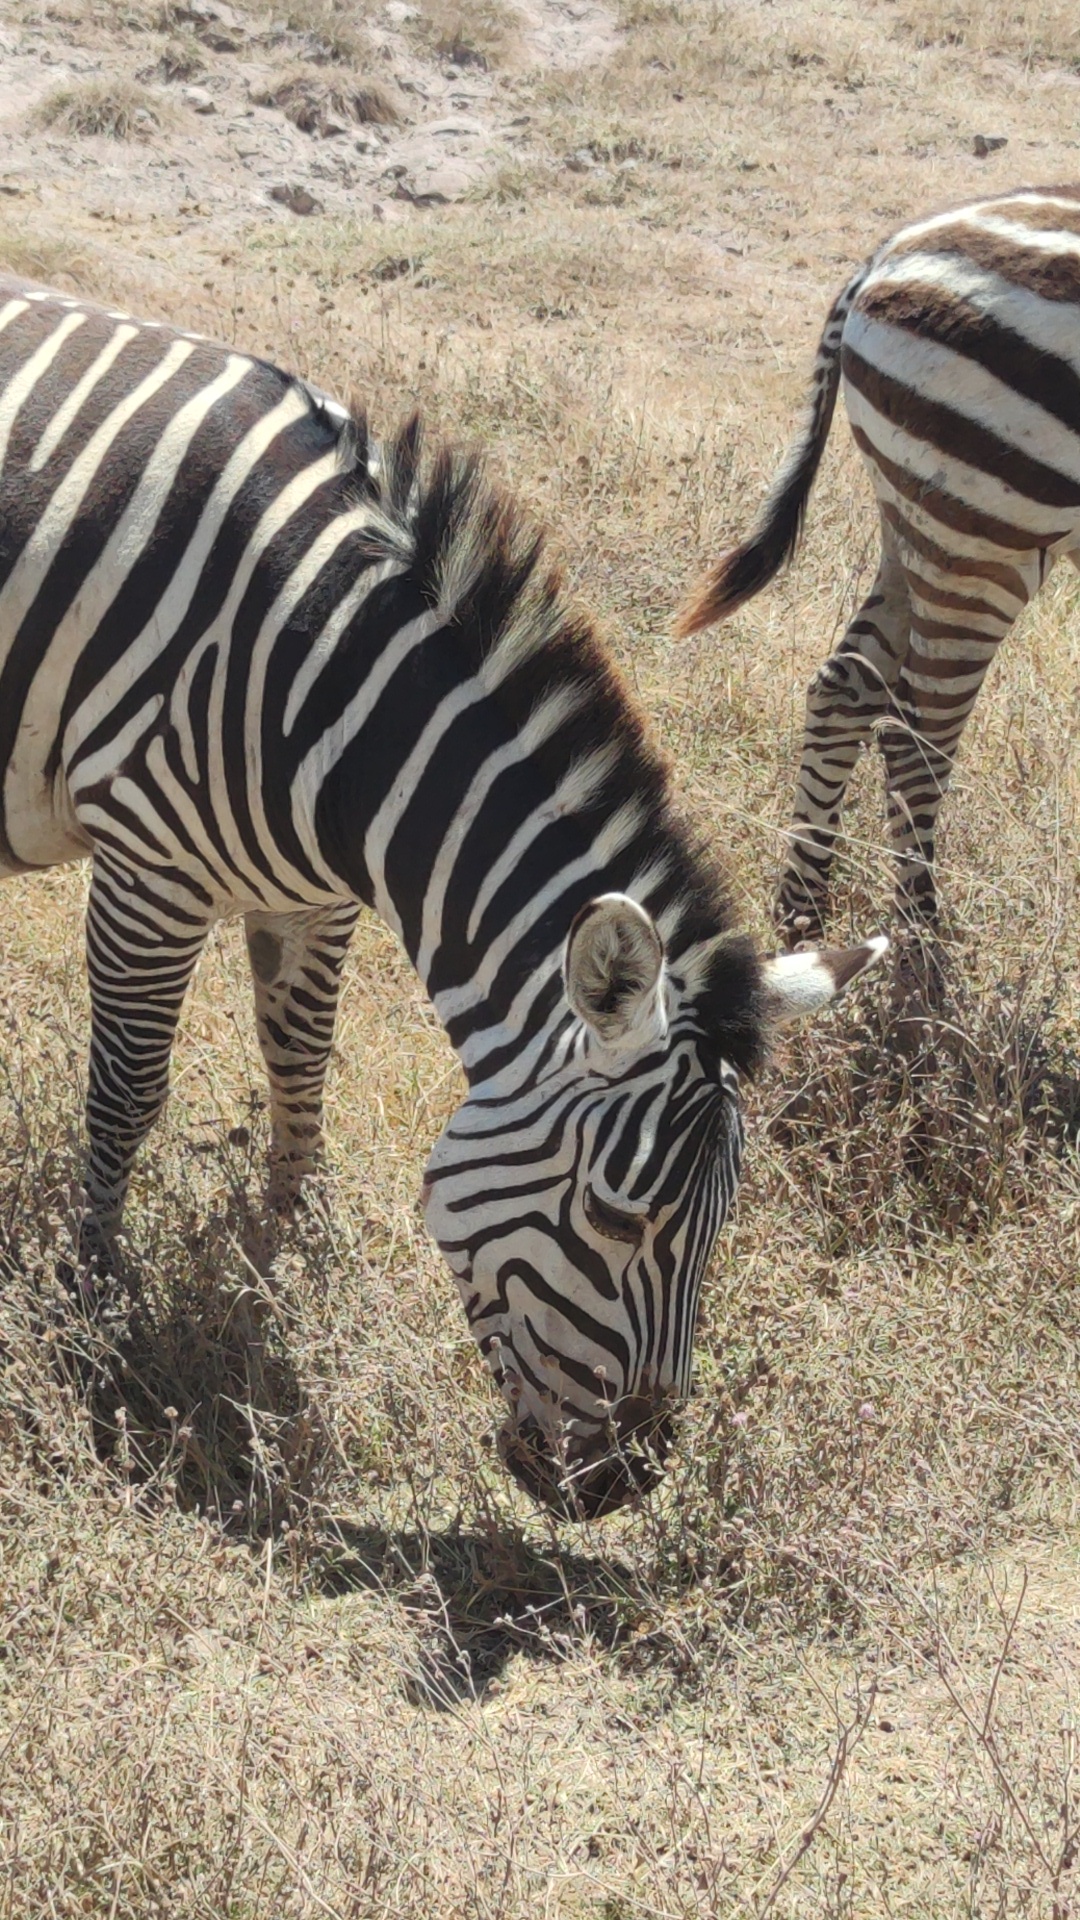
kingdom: Animalia
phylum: Chordata
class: Mammalia
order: Perissodactyla
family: Equidae
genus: Equus
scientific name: Equus quagga
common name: Plains zebra
